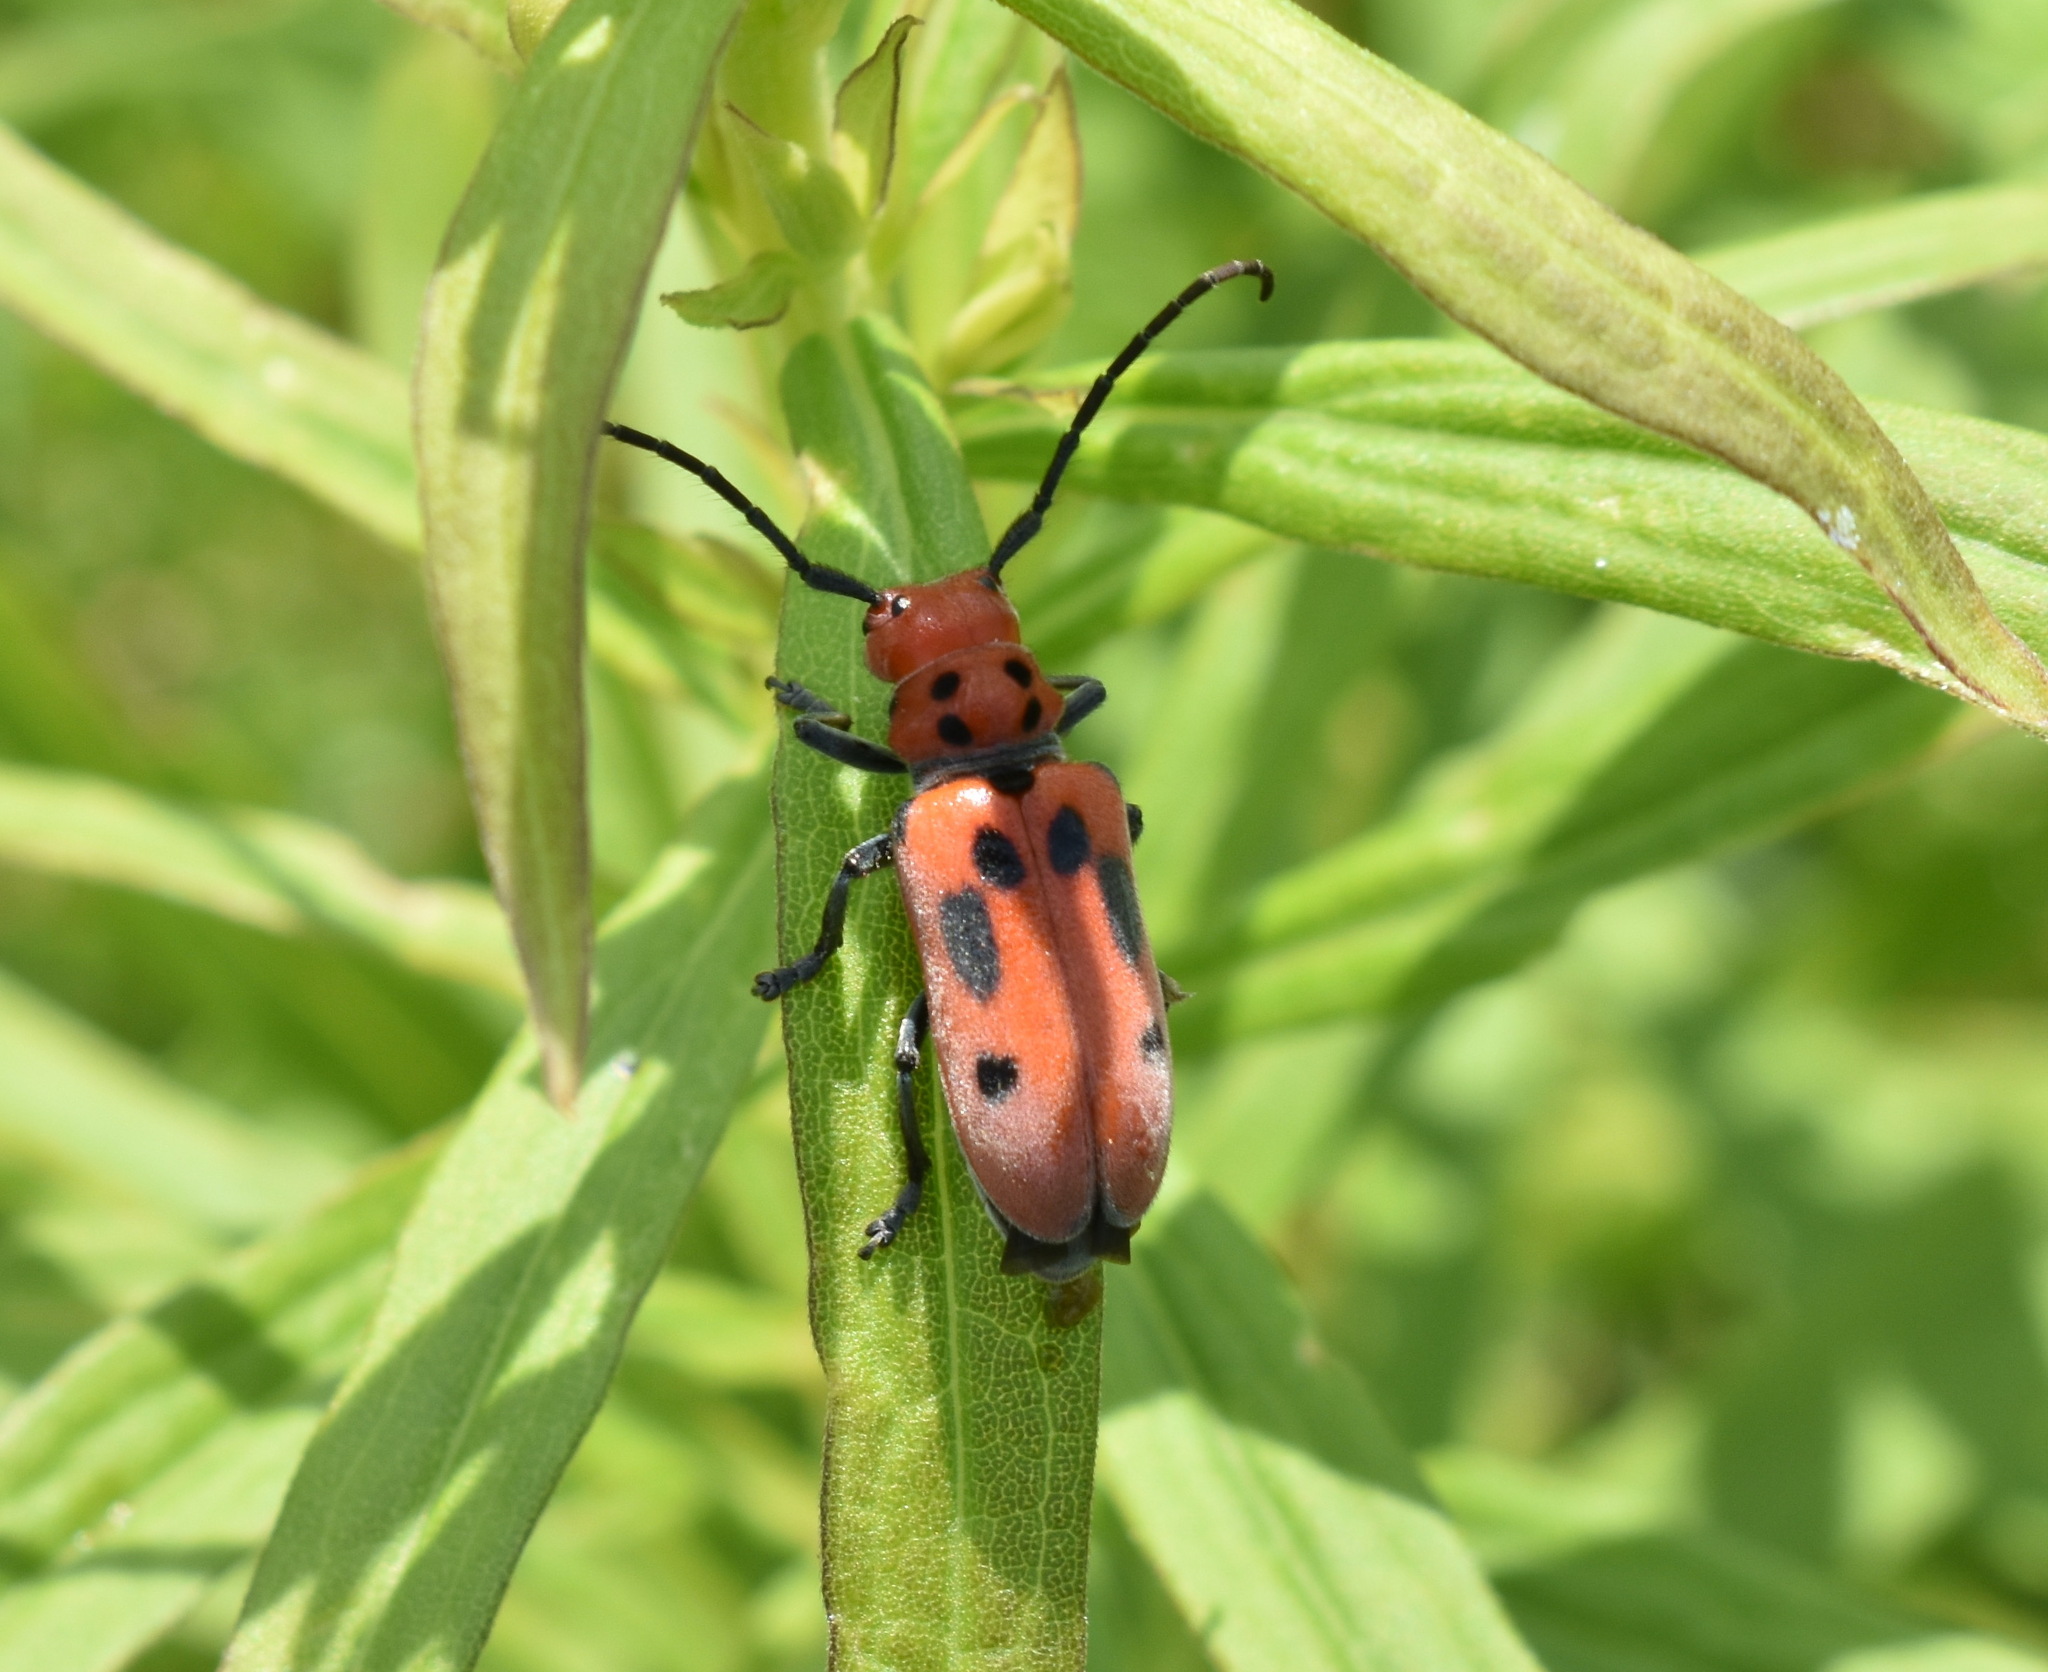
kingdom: Animalia
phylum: Arthropoda
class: Insecta
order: Coleoptera
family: Cerambycidae
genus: Tetraopes
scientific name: Tetraopes tetrophthalmus
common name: Red milkweed beetle
